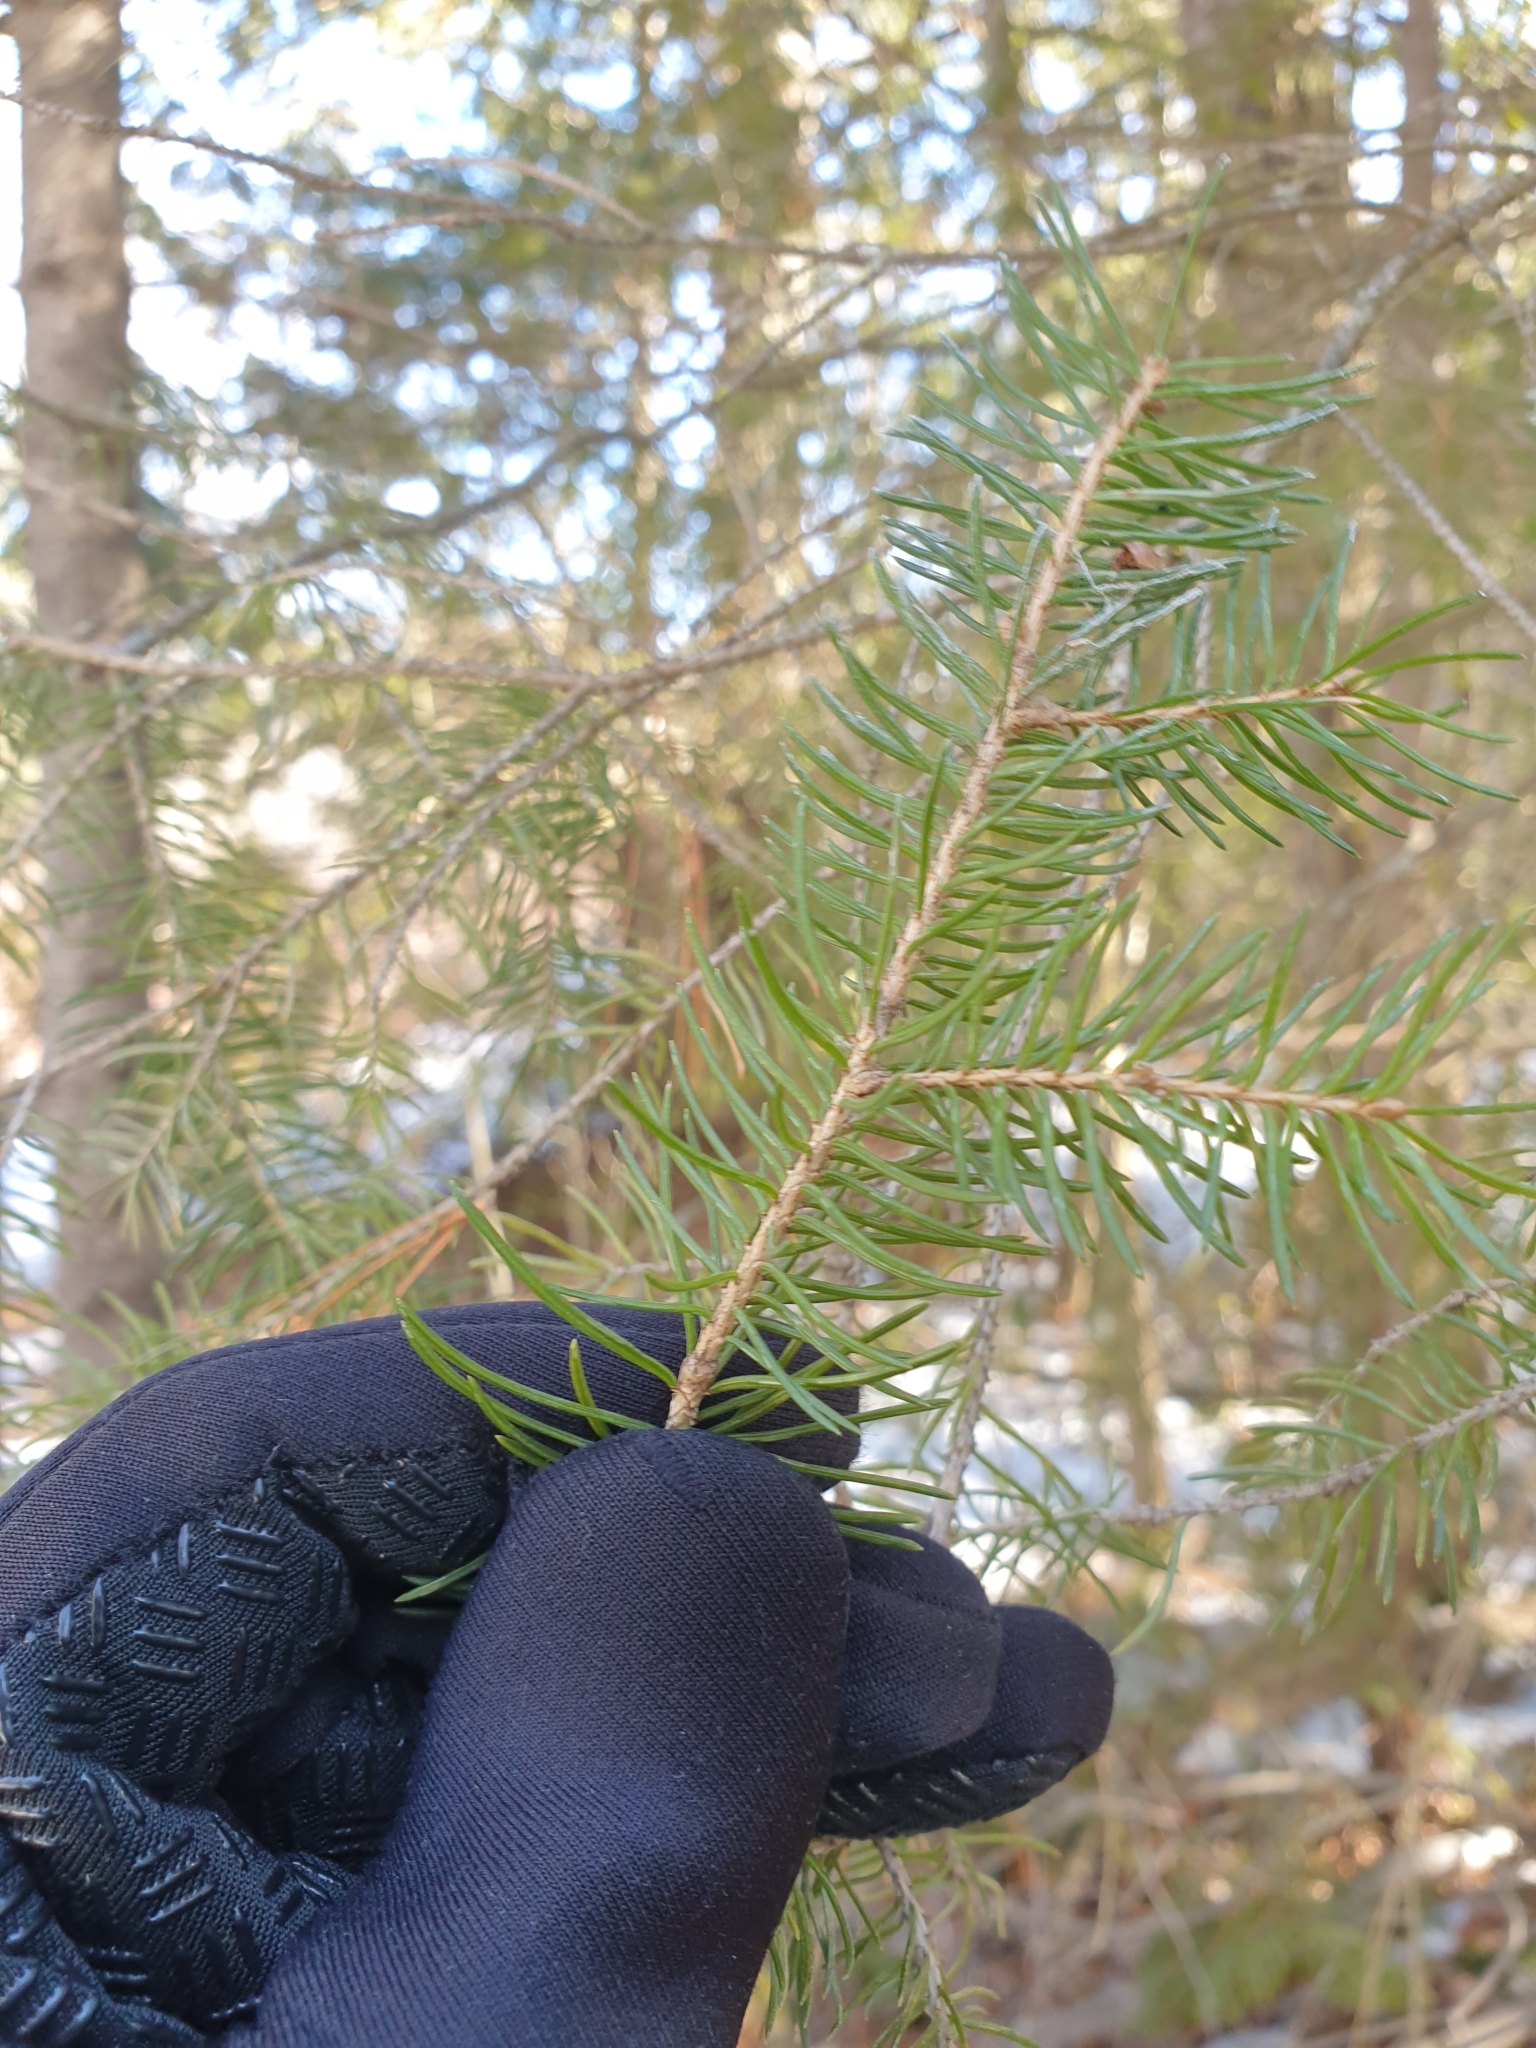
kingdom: Plantae
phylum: Tracheophyta
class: Pinopsida
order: Pinales
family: Pinaceae
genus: Picea
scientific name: Picea glauca
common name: White spruce
